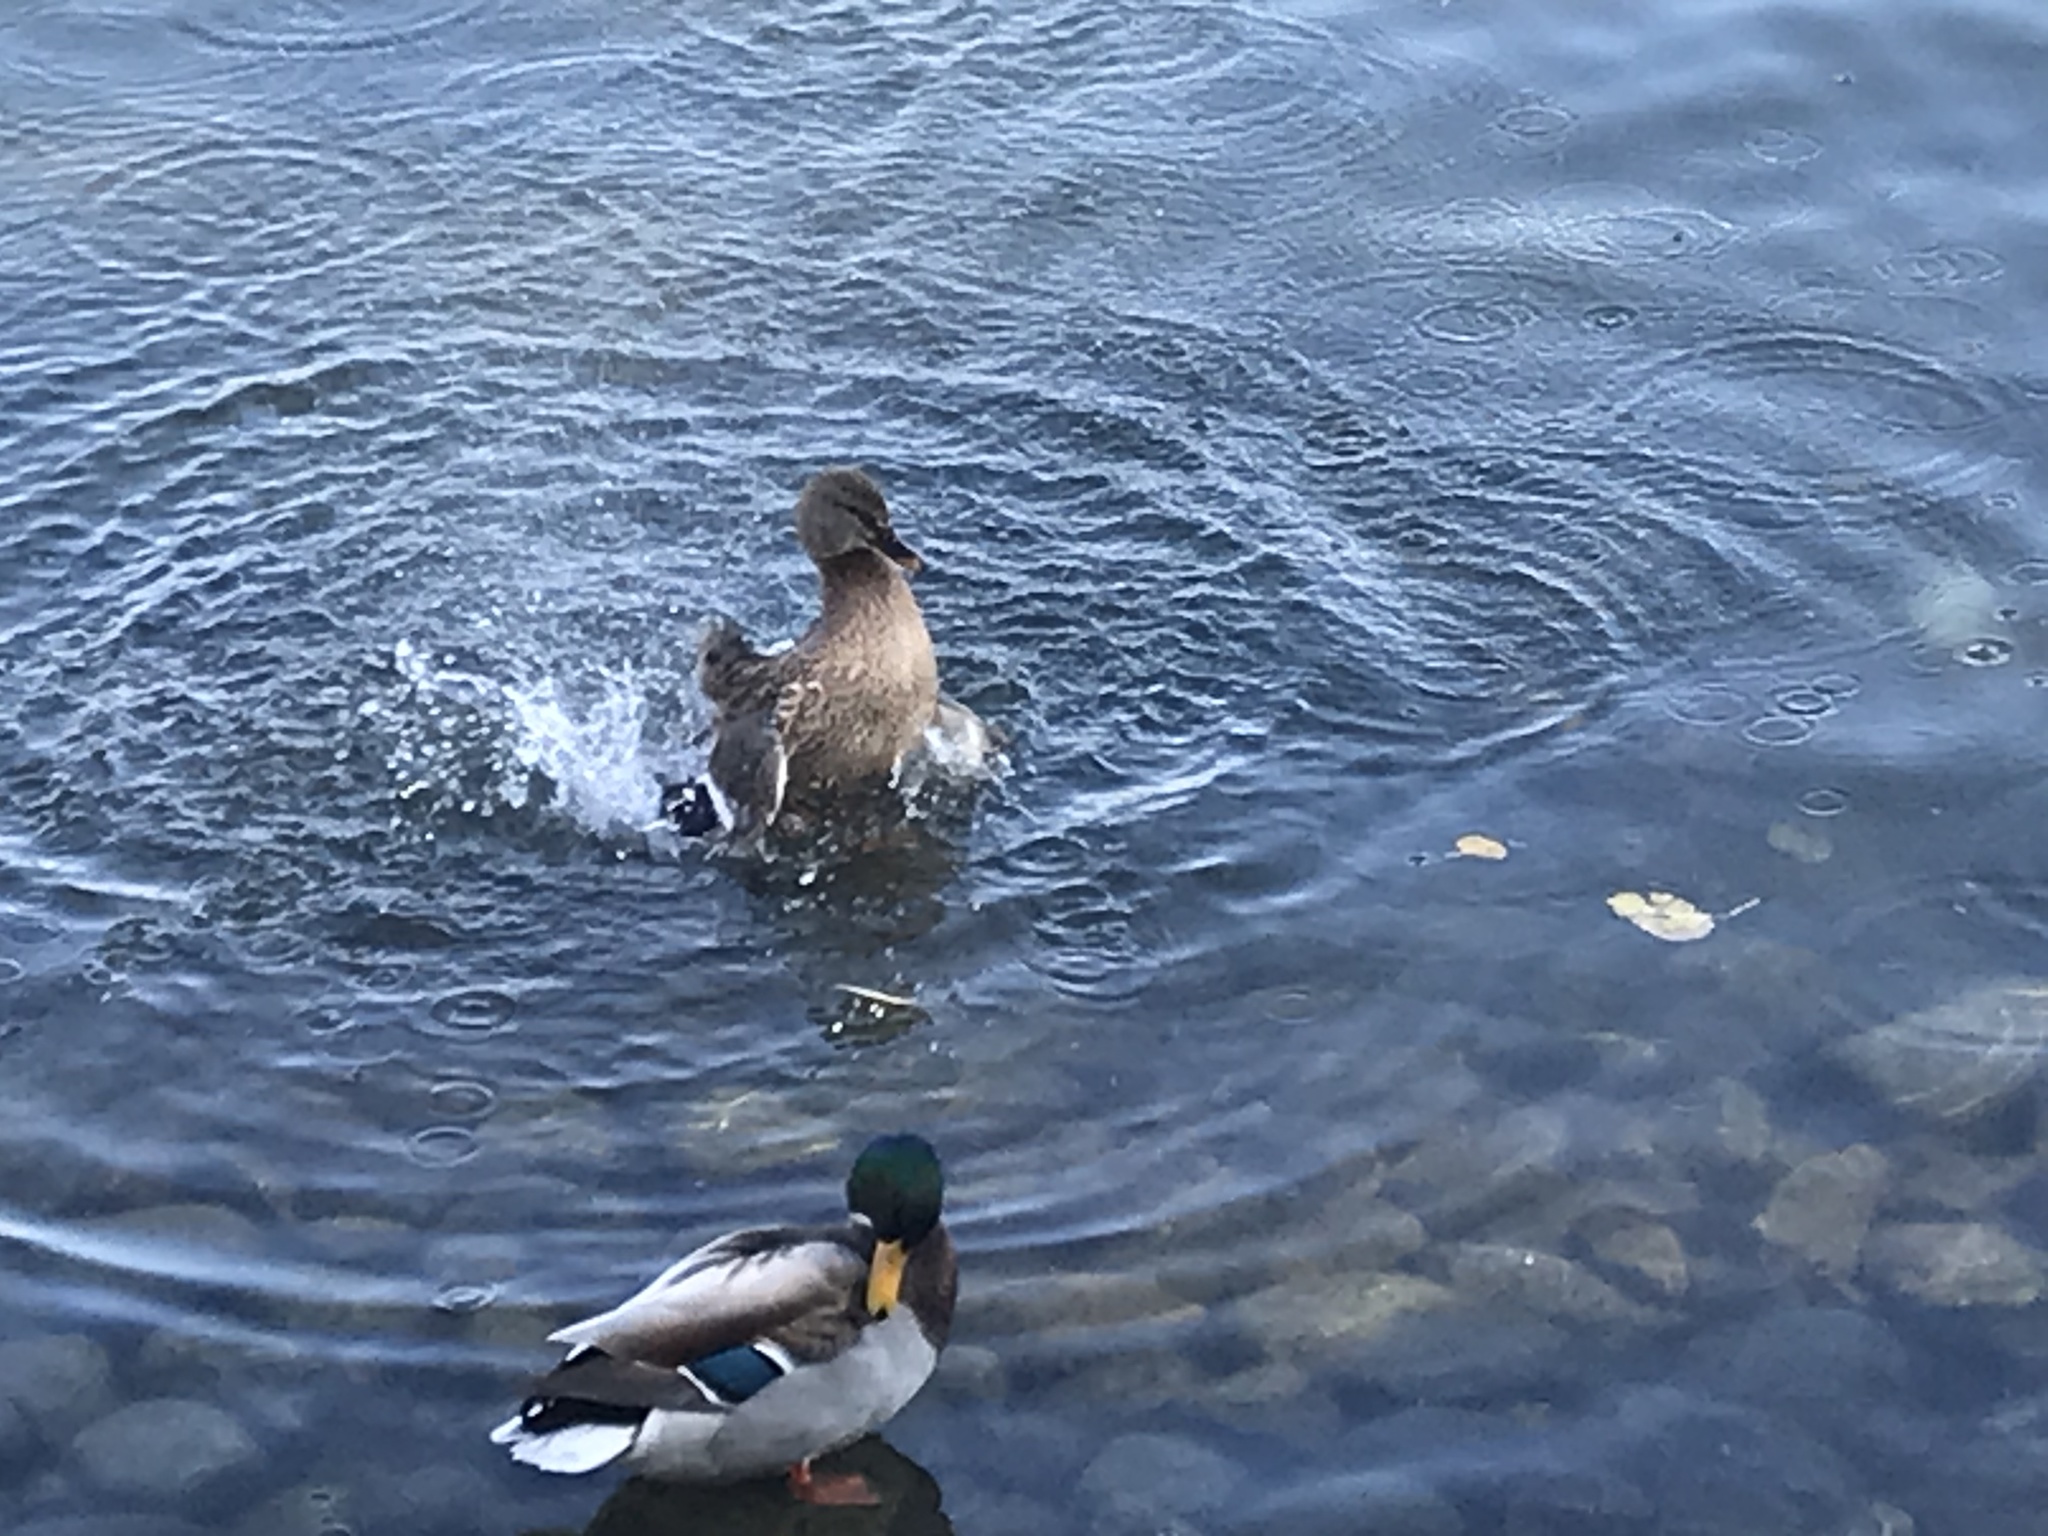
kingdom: Animalia
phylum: Chordata
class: Aves
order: Anseriformes
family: Anatidae
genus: Anas
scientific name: Anas platyrhynchos
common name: Mallard
